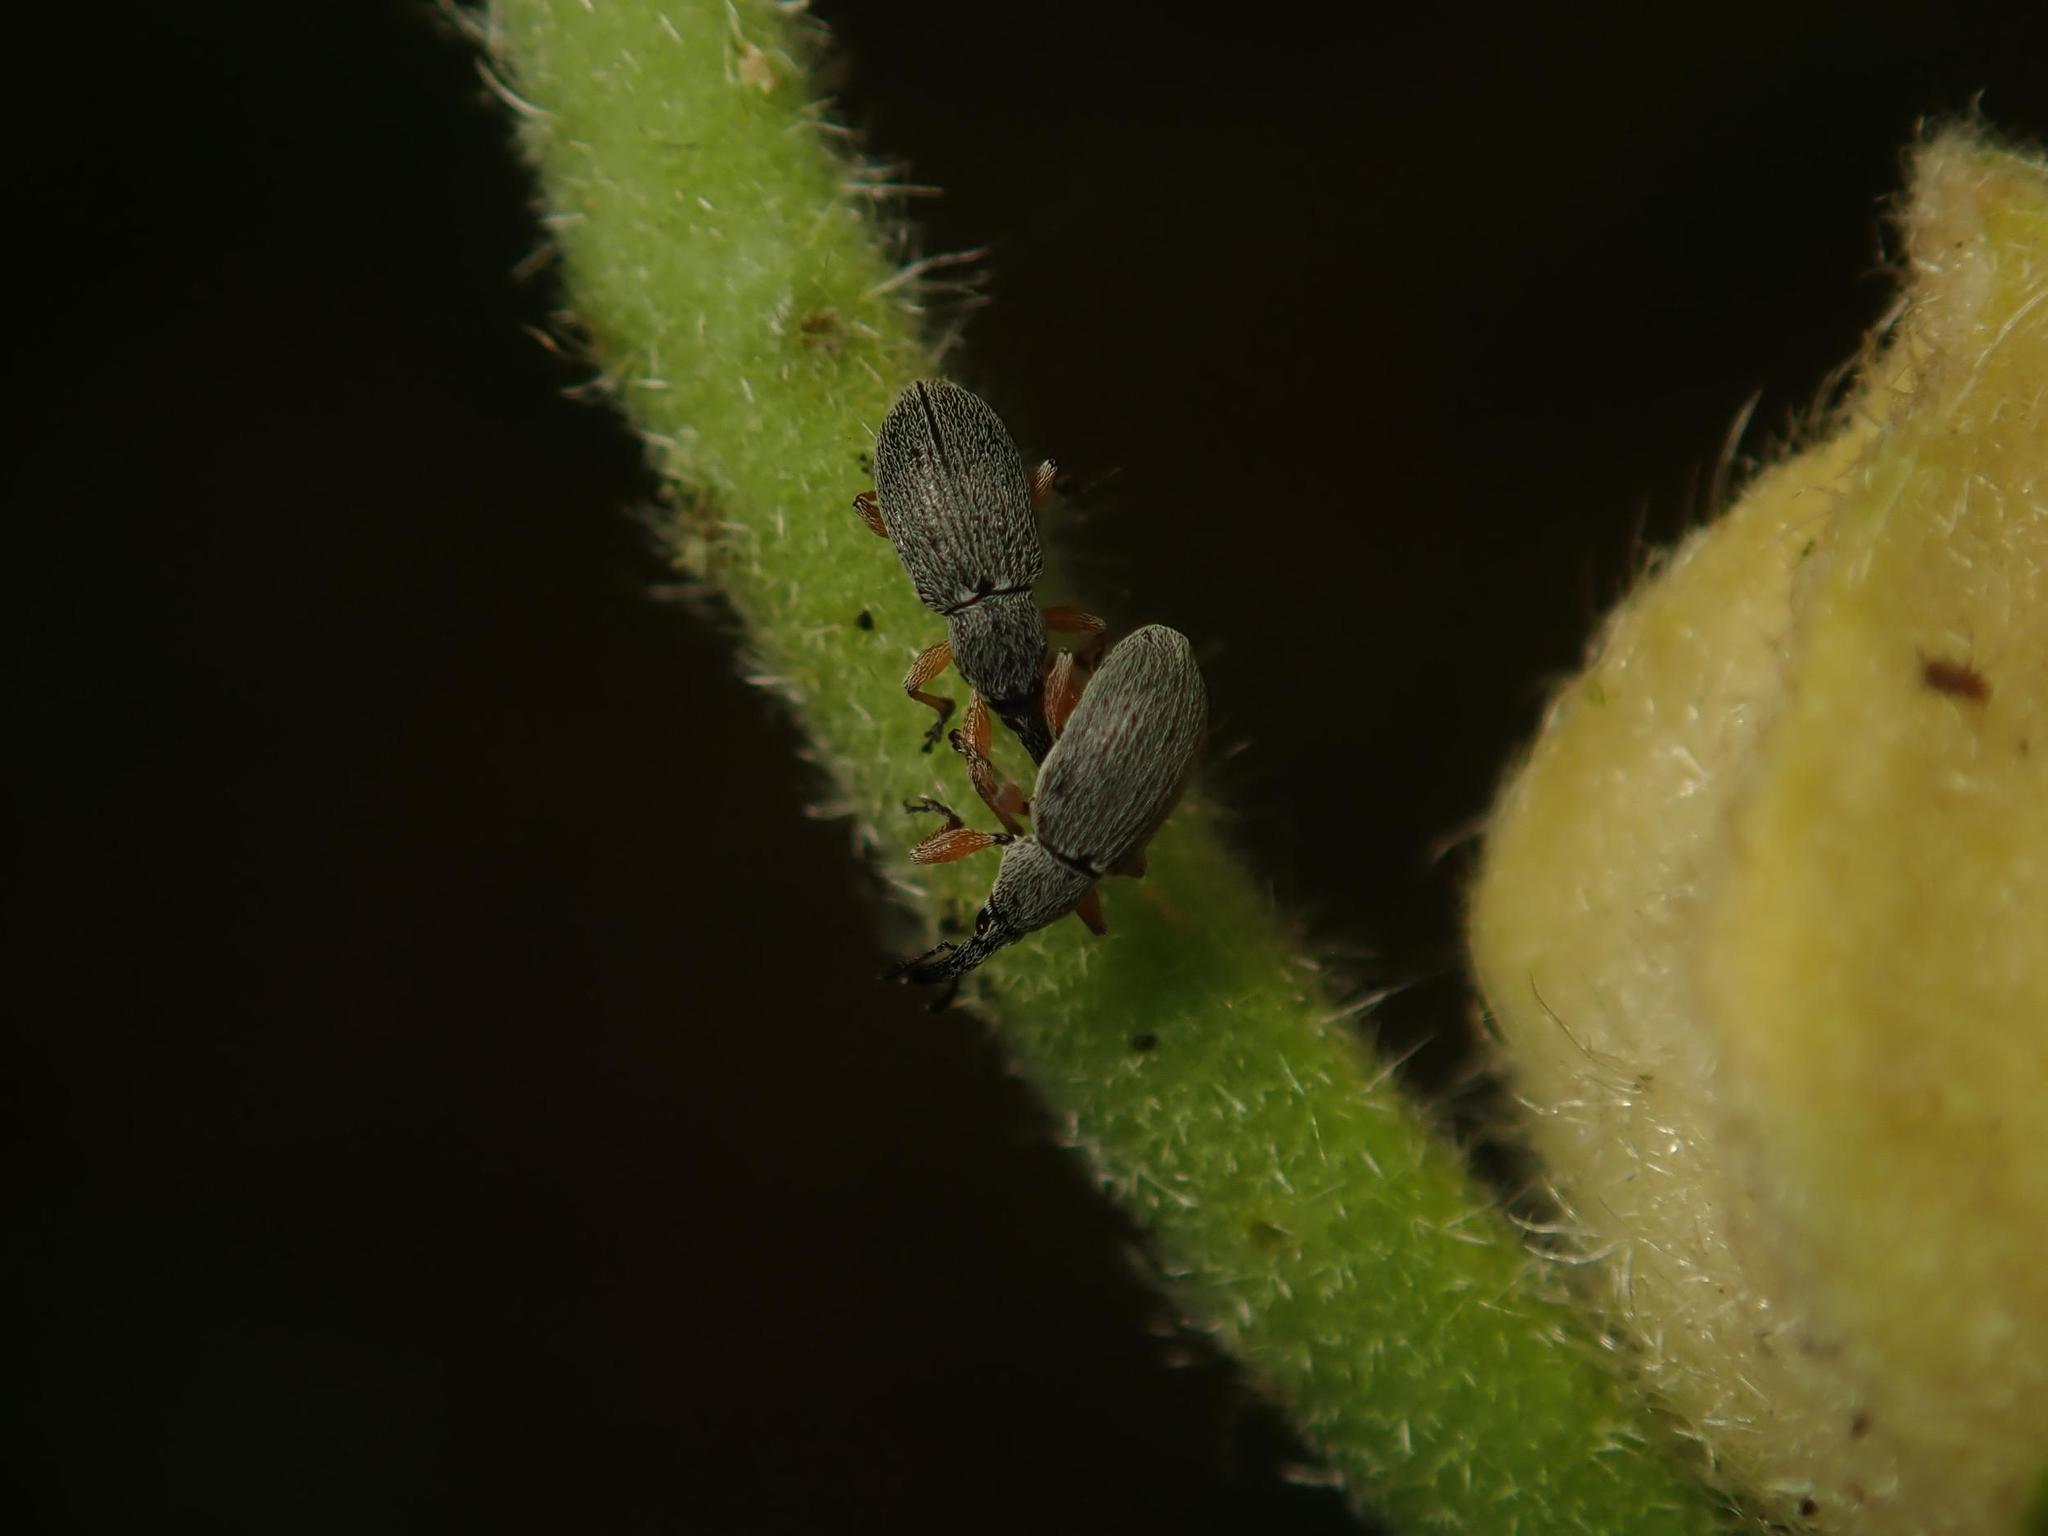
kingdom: Animalia
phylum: Arthropoda
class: Insecta
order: Coleoptera
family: Brentidae
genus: Rhopalapion
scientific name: Rhopalapion longirostre
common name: Hollyhock weevil
